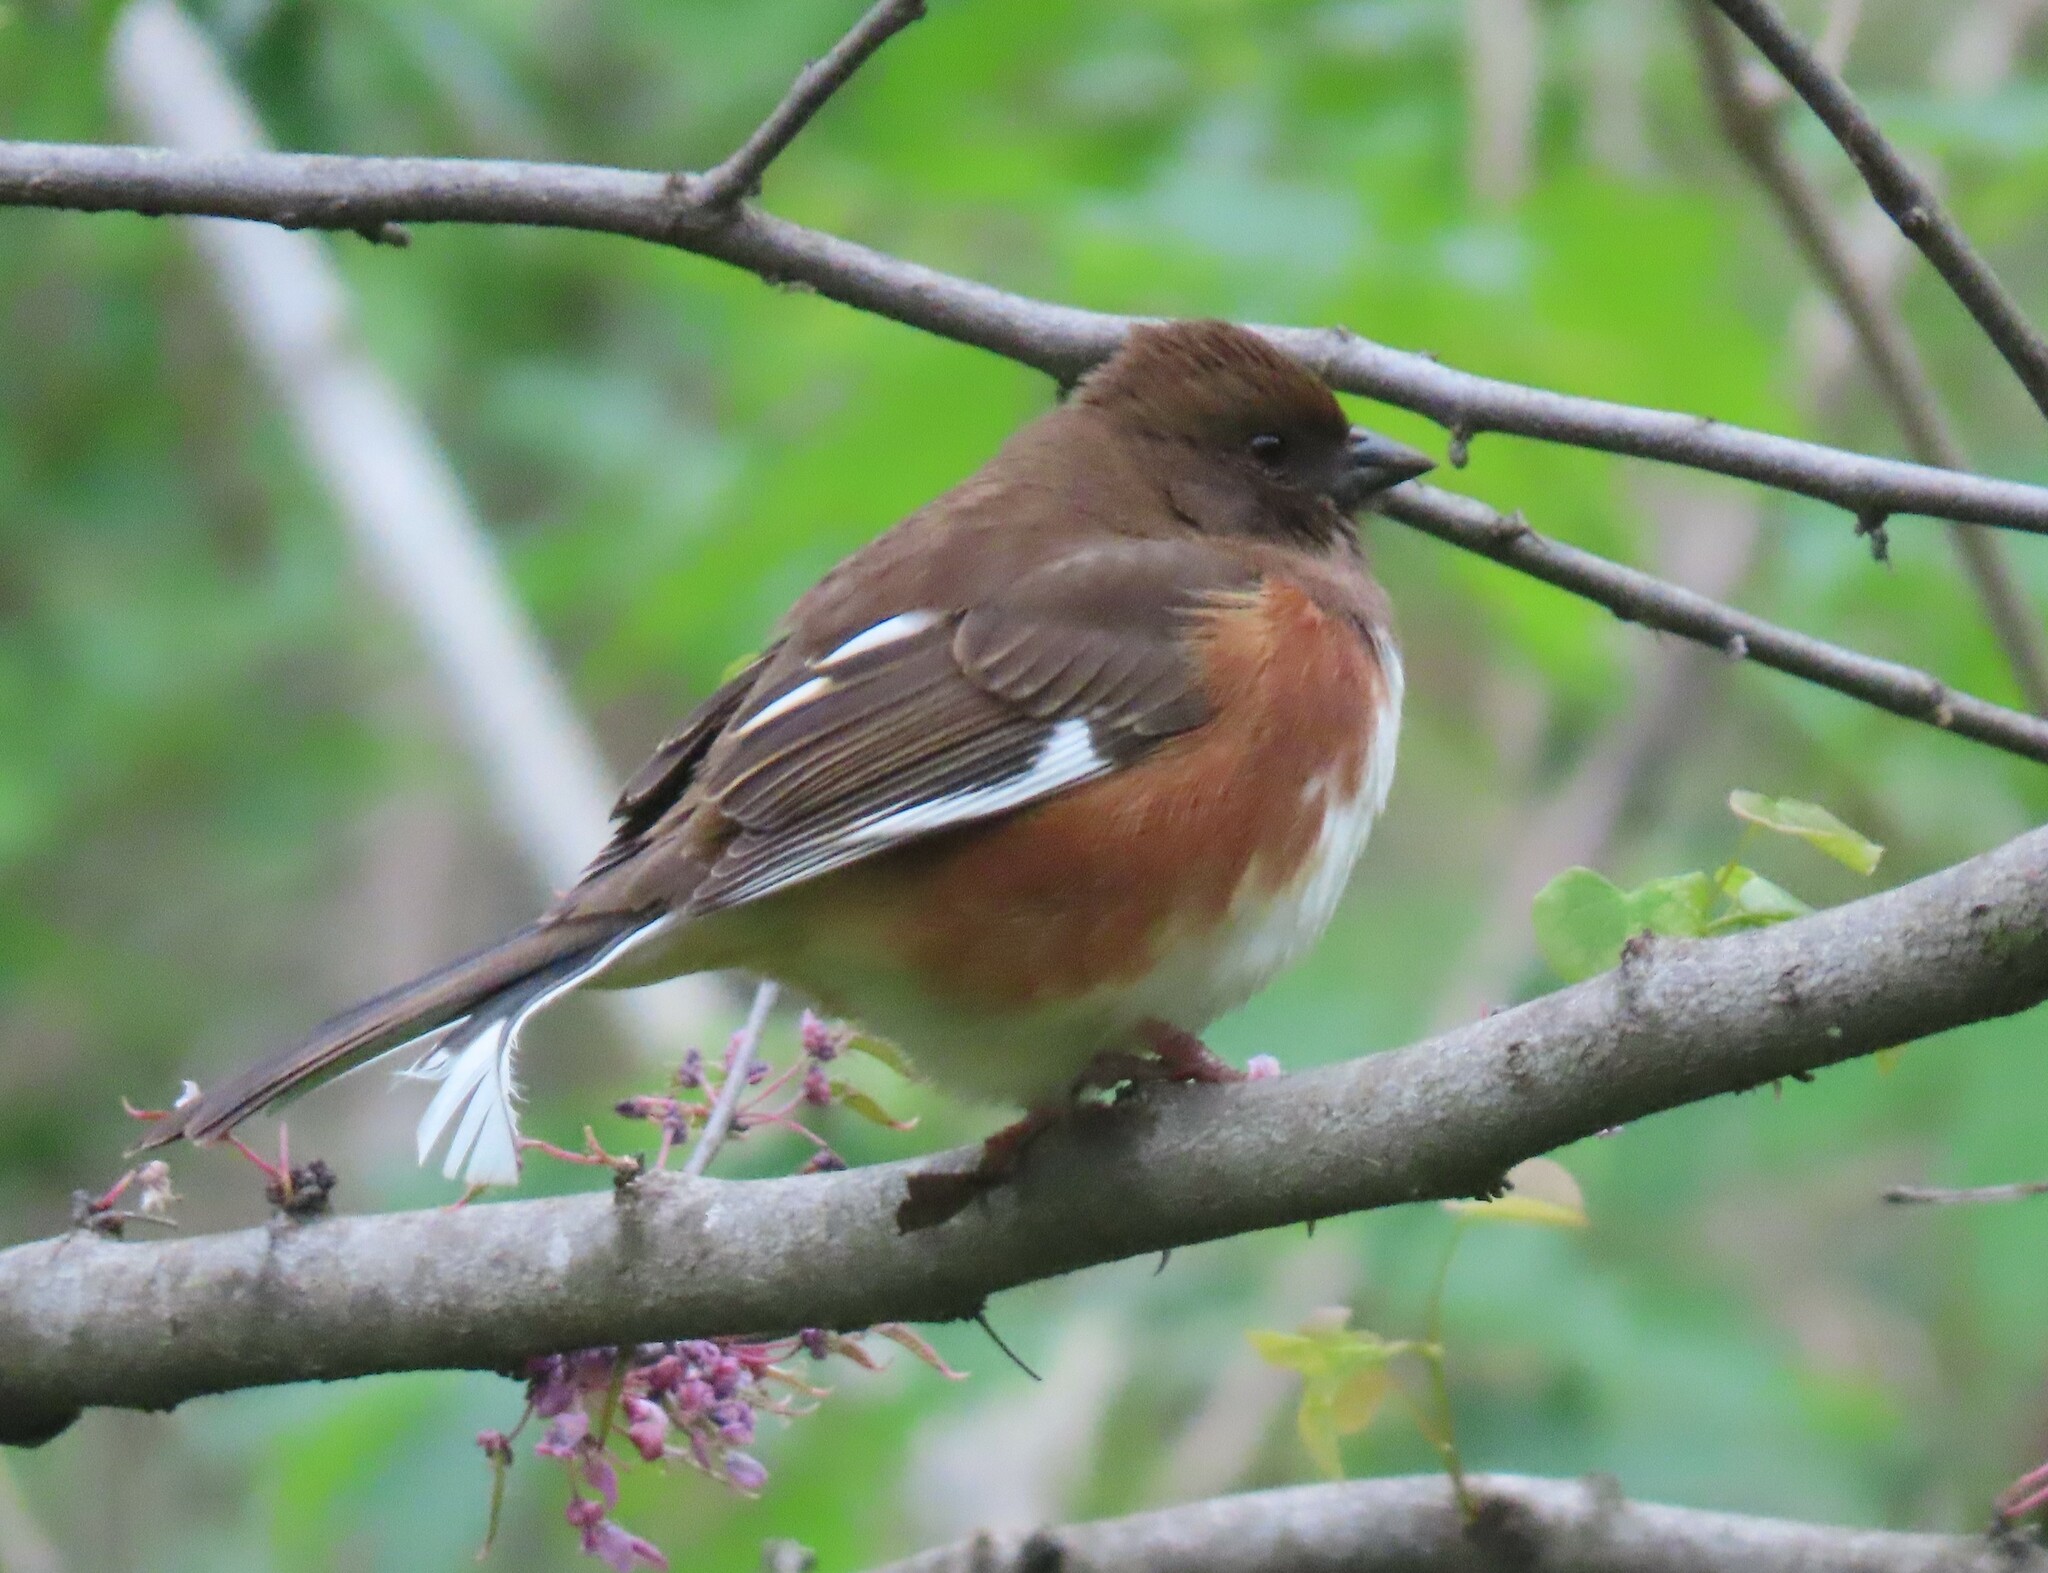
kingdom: Animalia
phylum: Chordata
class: Aves
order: Passeriformes
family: Passerellidae
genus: Pipilo
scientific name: Pipilo erythrophthalmus
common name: Eastern towhee
